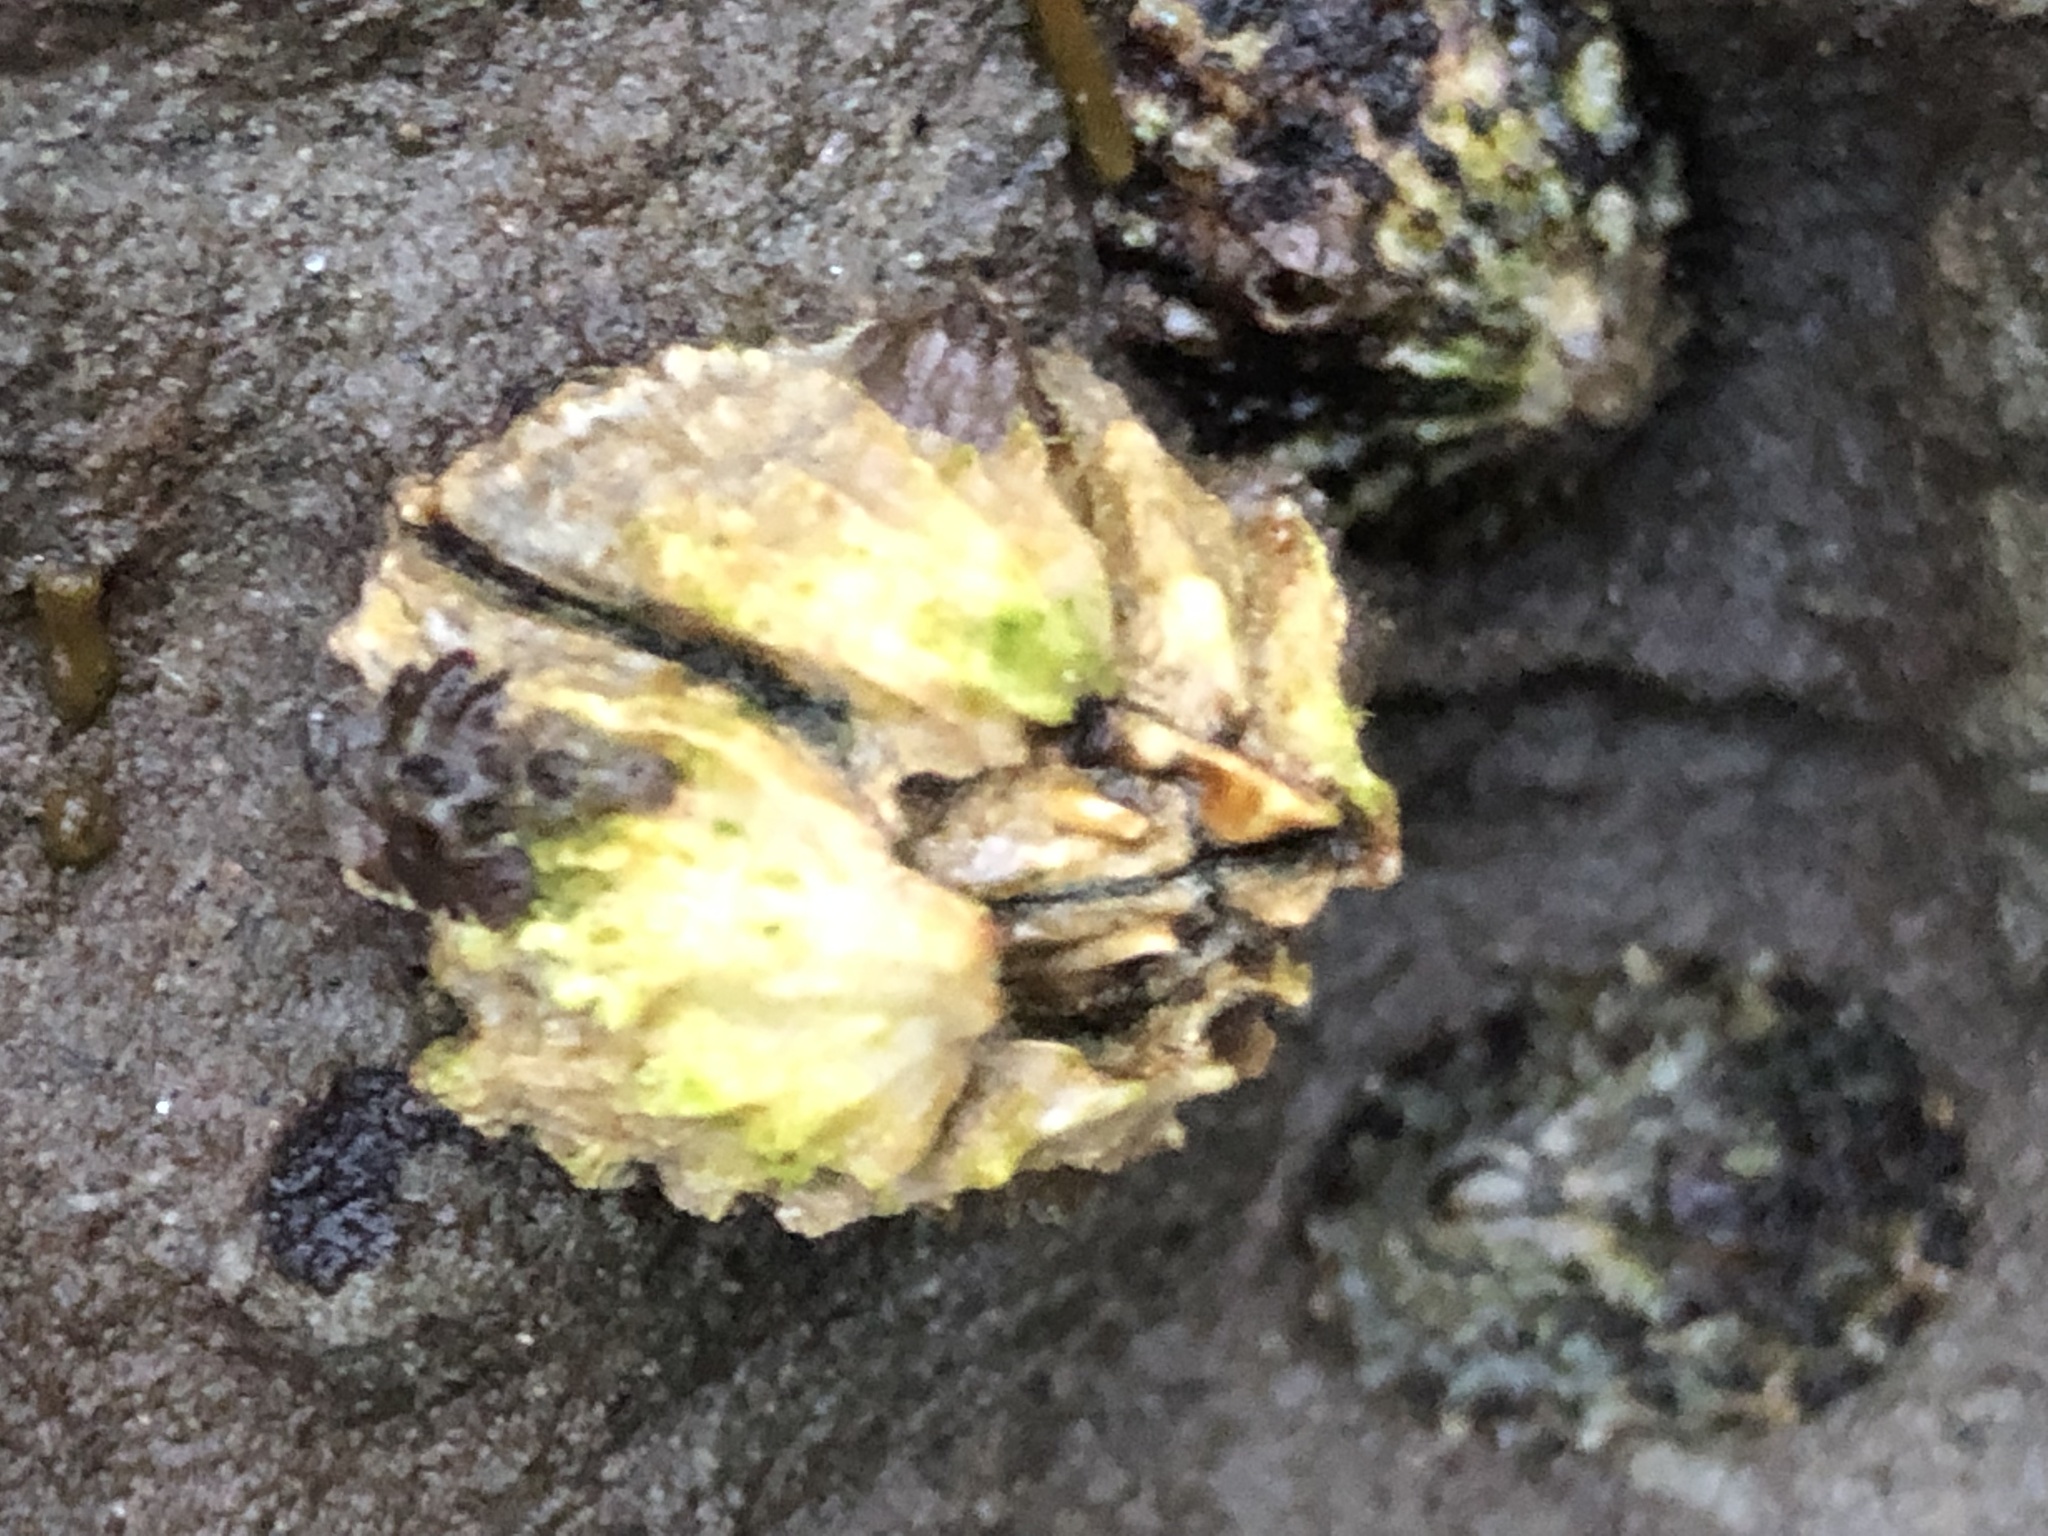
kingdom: Animalia
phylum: Arthropoda
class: Maxillopoda
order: Sessilia
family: Balanidae
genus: Balanus
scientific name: Balanus glandula
